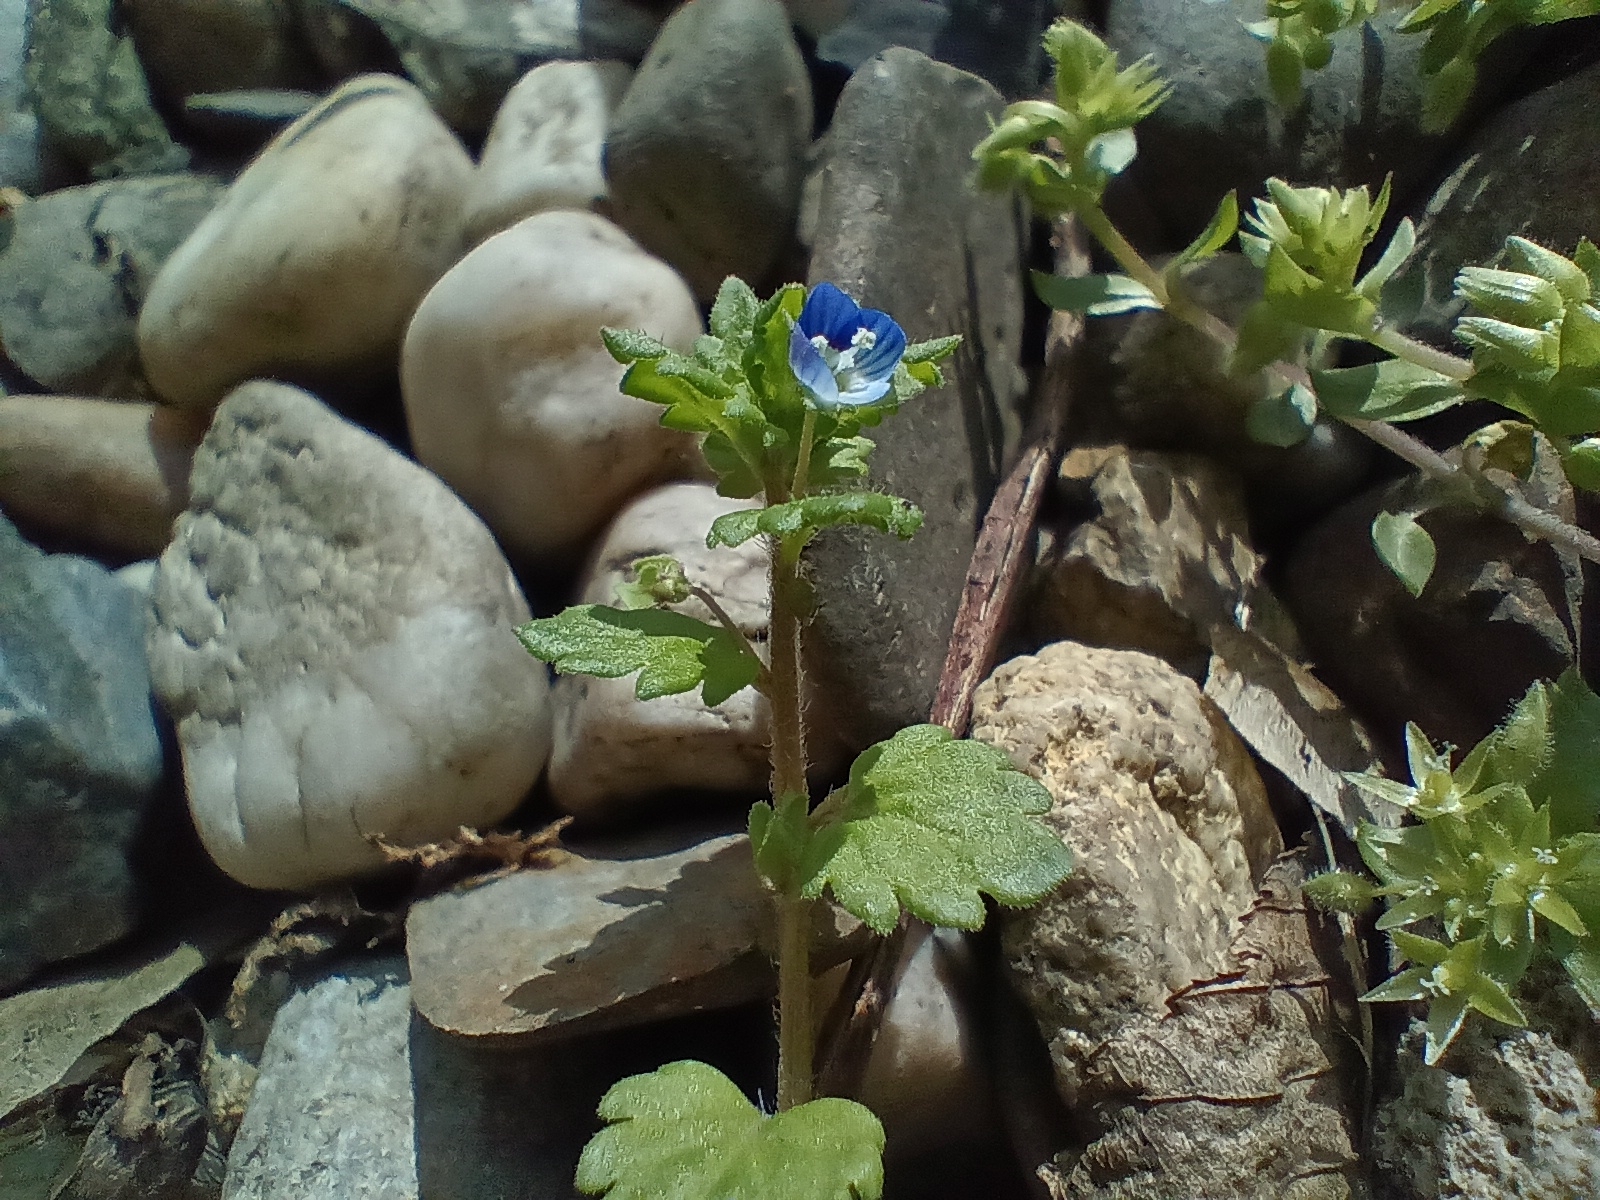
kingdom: Plantae
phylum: Tracheophyta
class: Magnoliopsida
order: Lamiales
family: Plantaginaceae
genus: Veronica
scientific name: Veronica polita
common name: Grey field-speedwell
